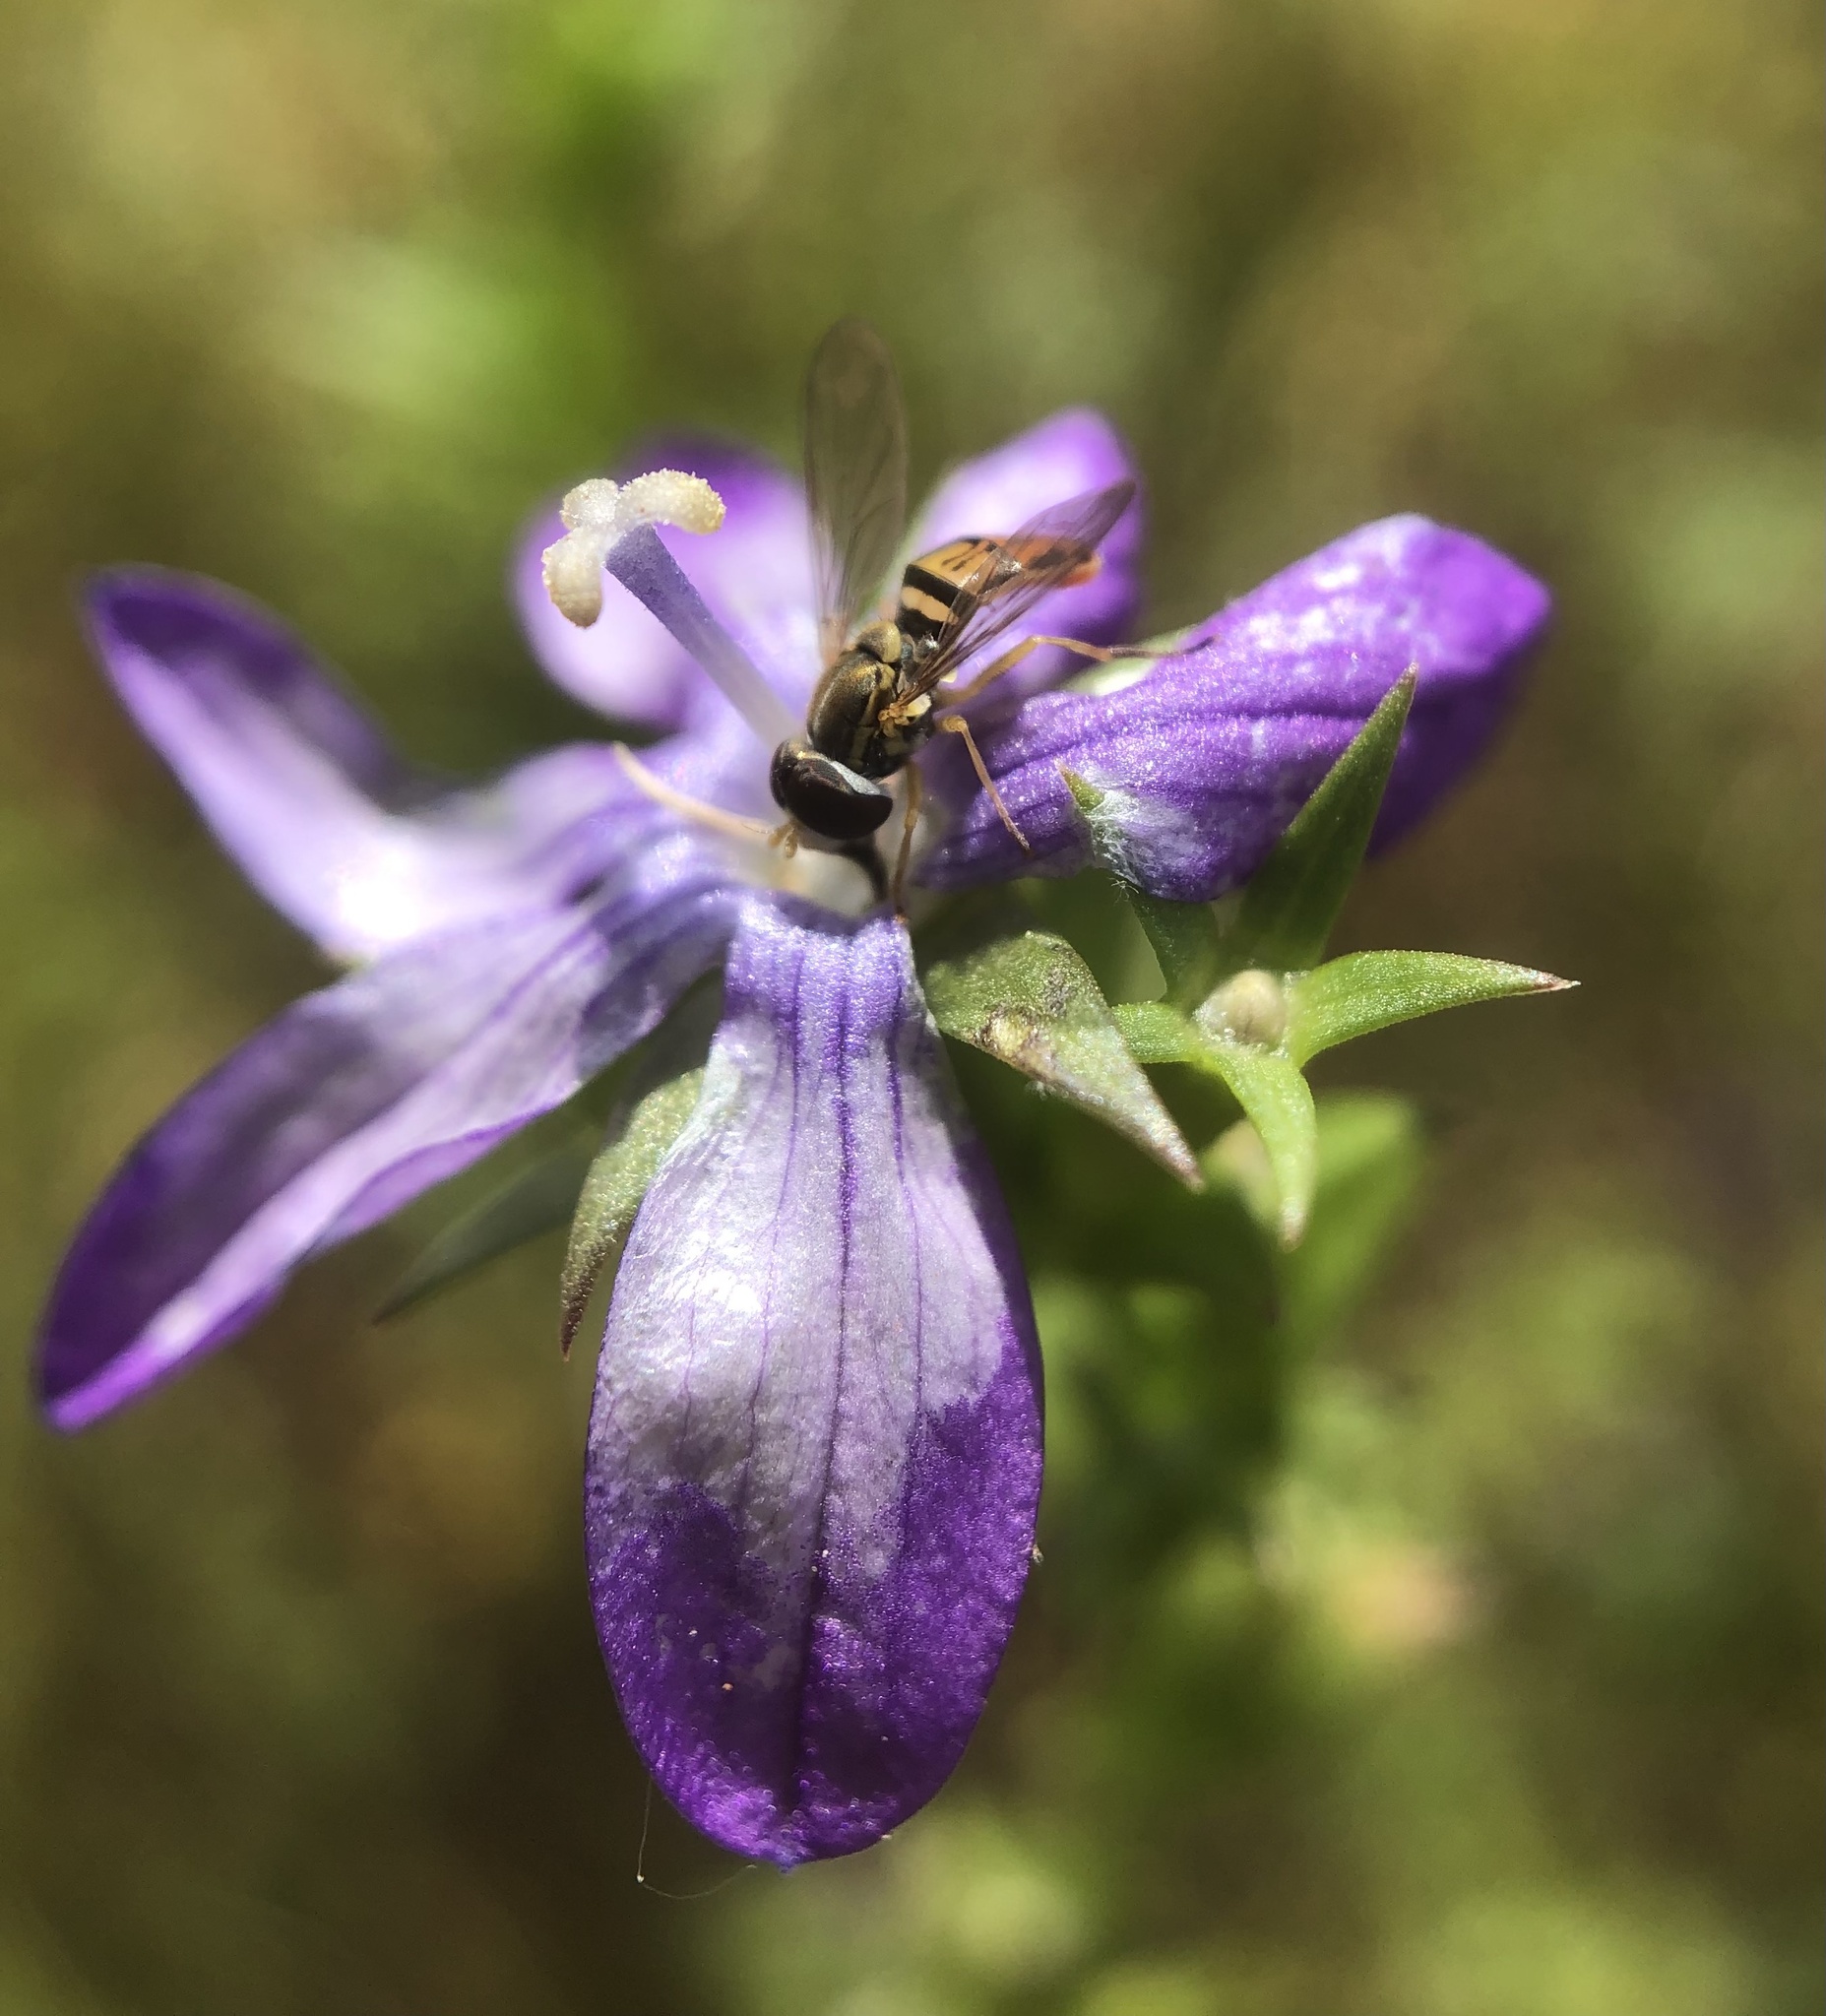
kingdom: Animalia
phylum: Arthropoda
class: Insecta
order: Diptera
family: Syrphidae
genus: Toxomerus
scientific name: Toxomerus marginatus
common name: Syrphid fly
